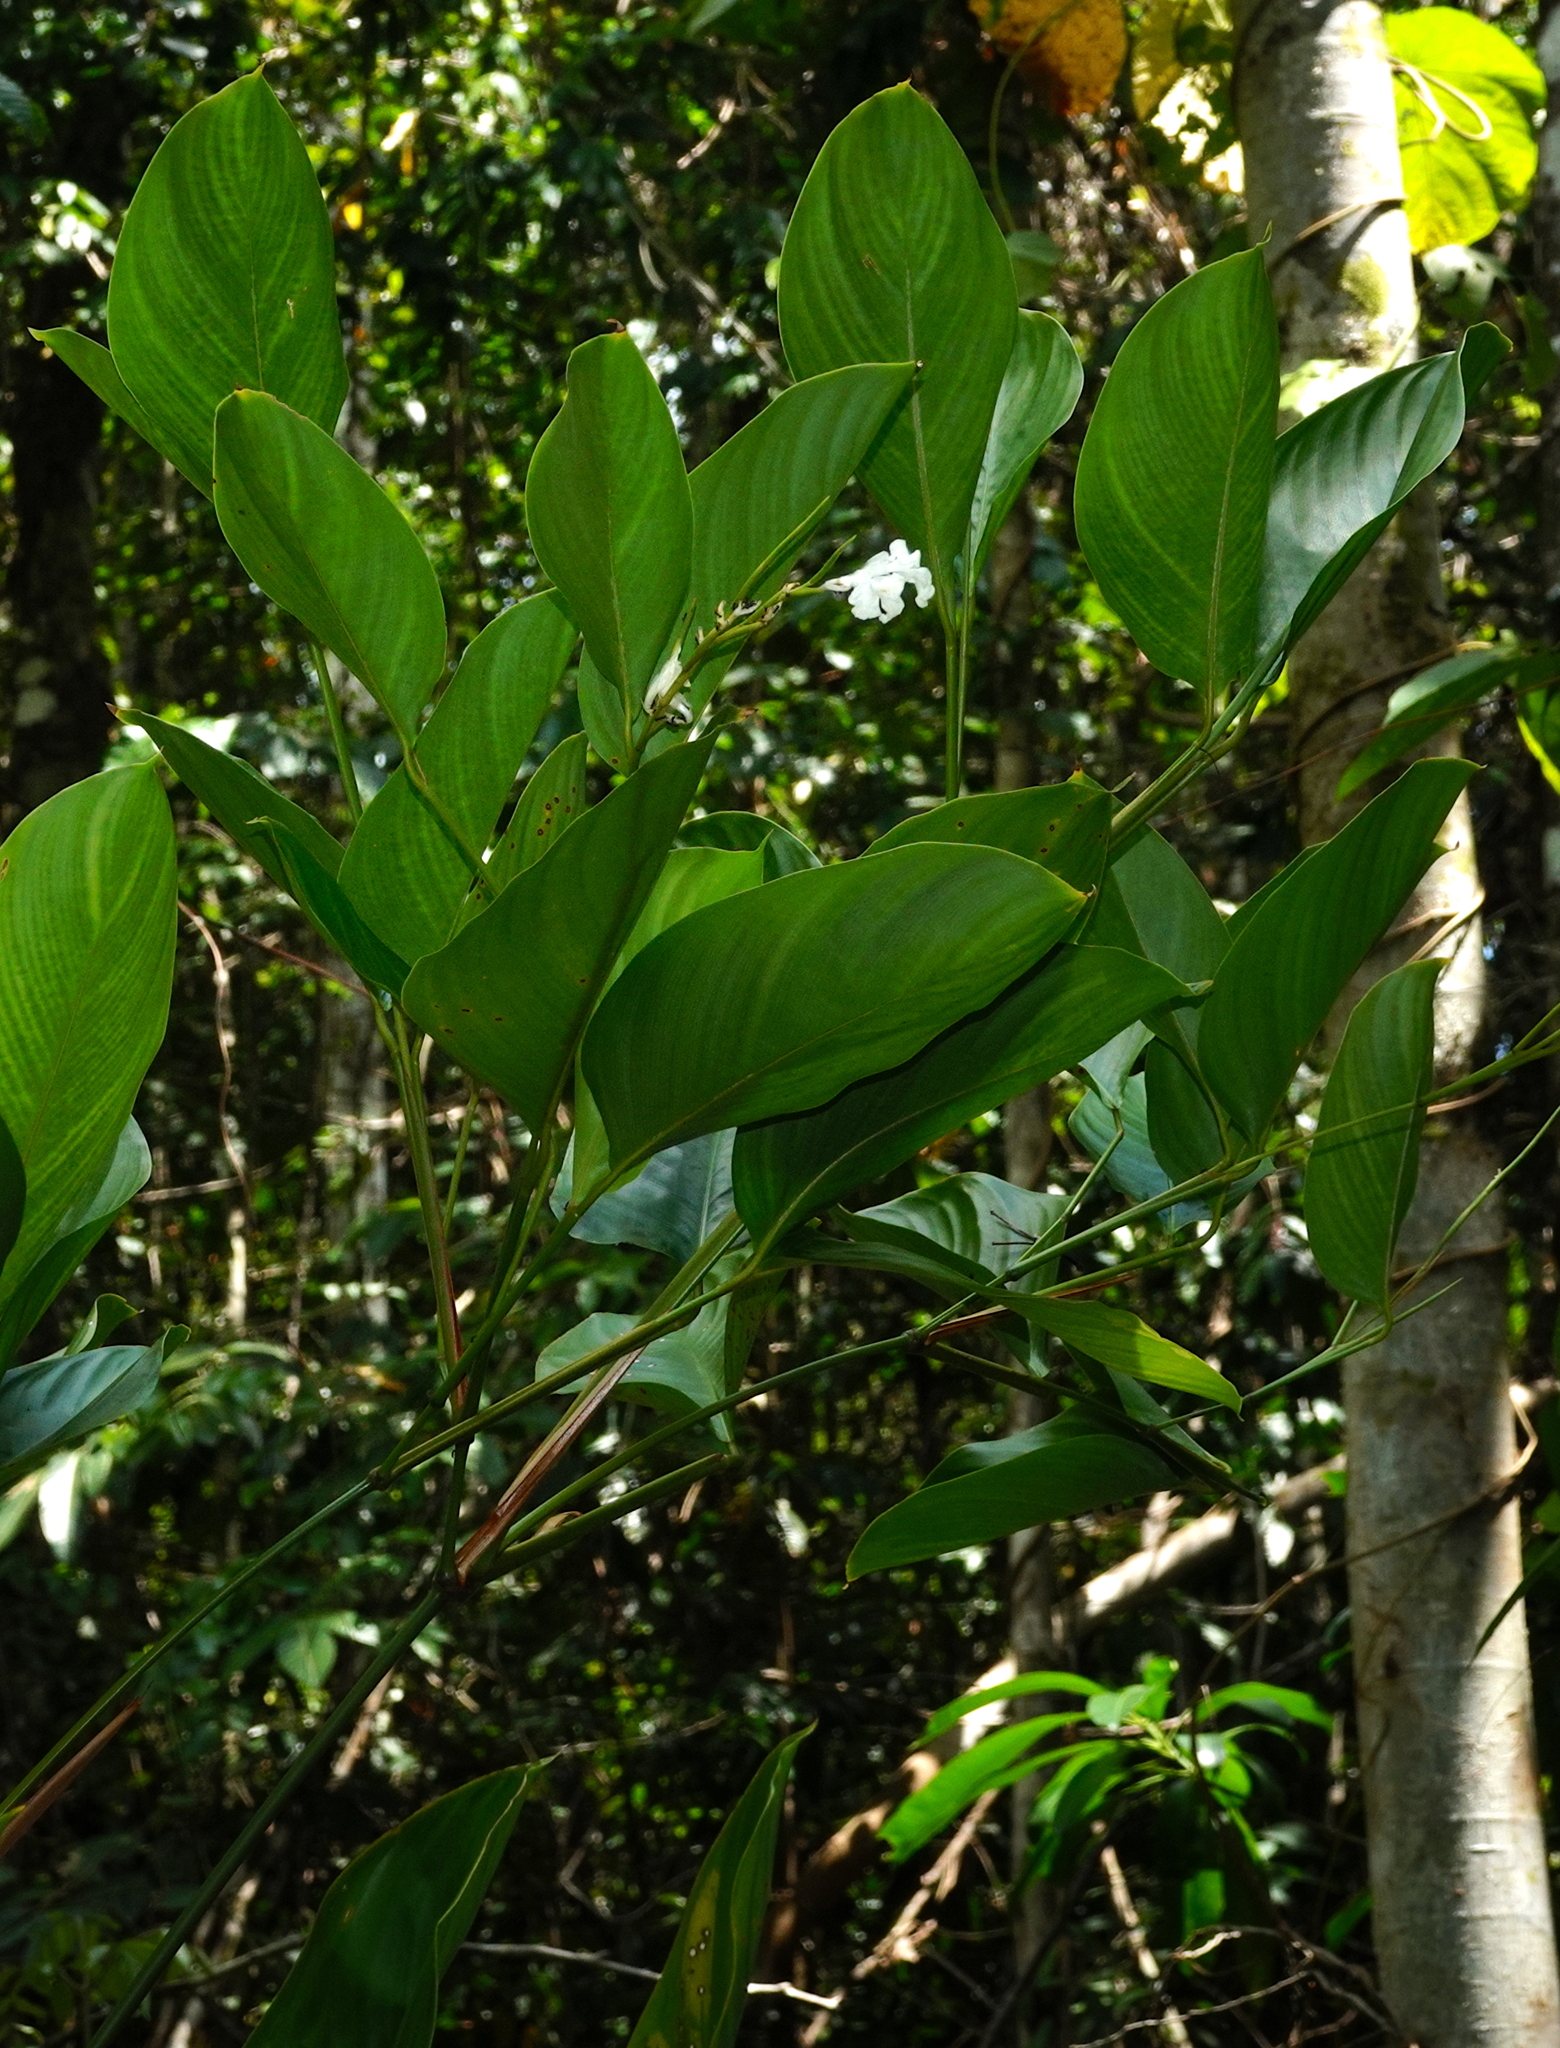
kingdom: Plantae
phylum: Tracheophyta
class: Liliopsida
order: Zingiberales
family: Marantaceae
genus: Maranta
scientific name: Maranta arundinacea
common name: Arrowroot
